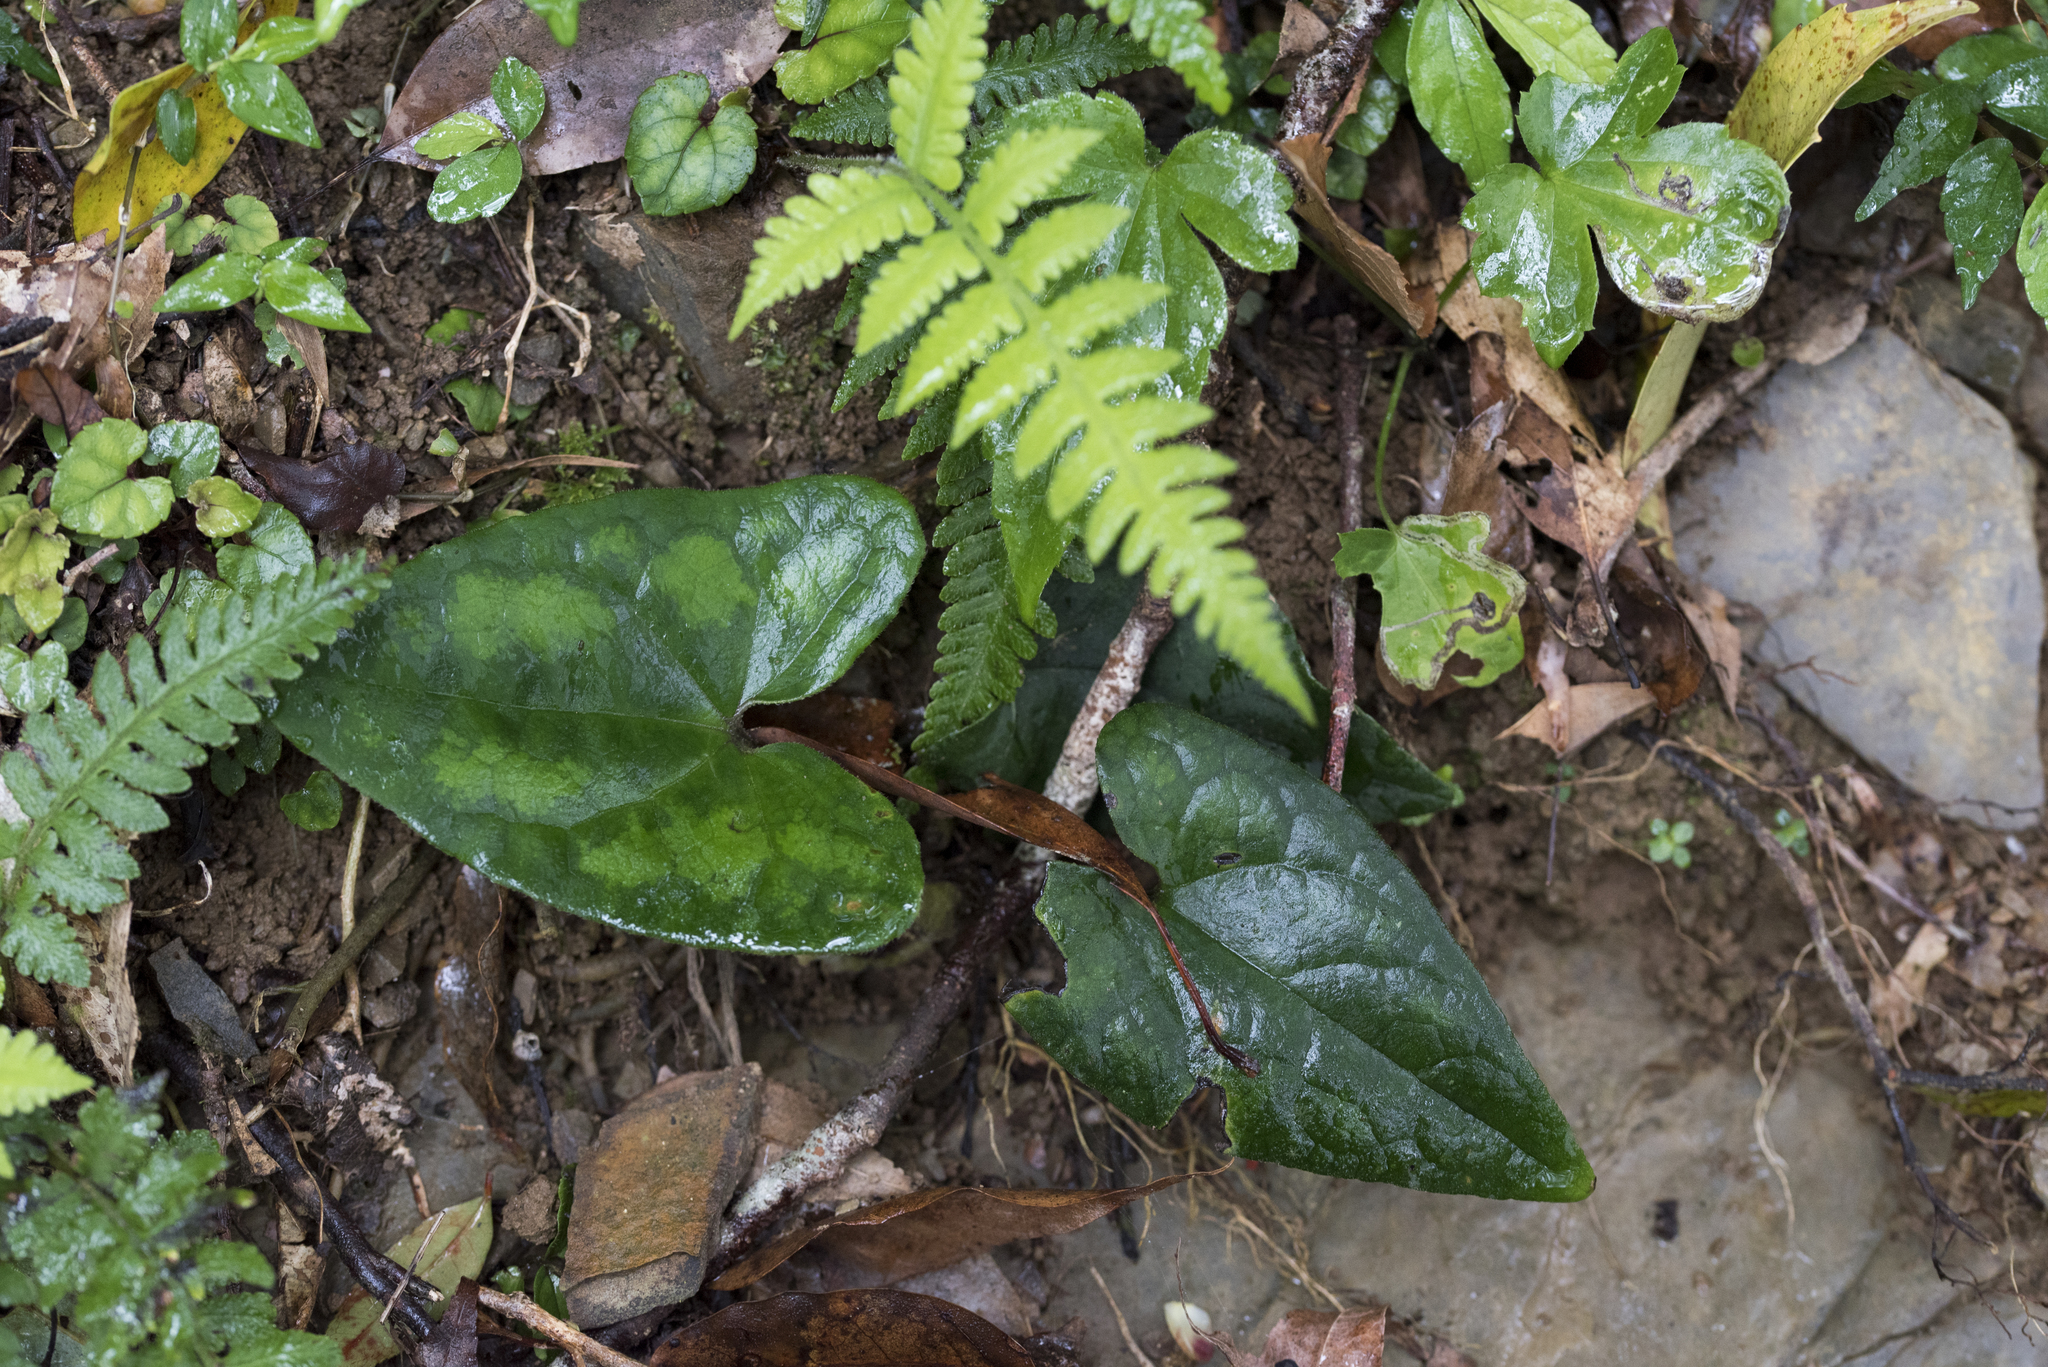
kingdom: Plantae
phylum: Tracheophyta
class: Magnoliopsida
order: Piperales
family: Aristolochiaceae
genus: Asarum
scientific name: Asarum macranthum
